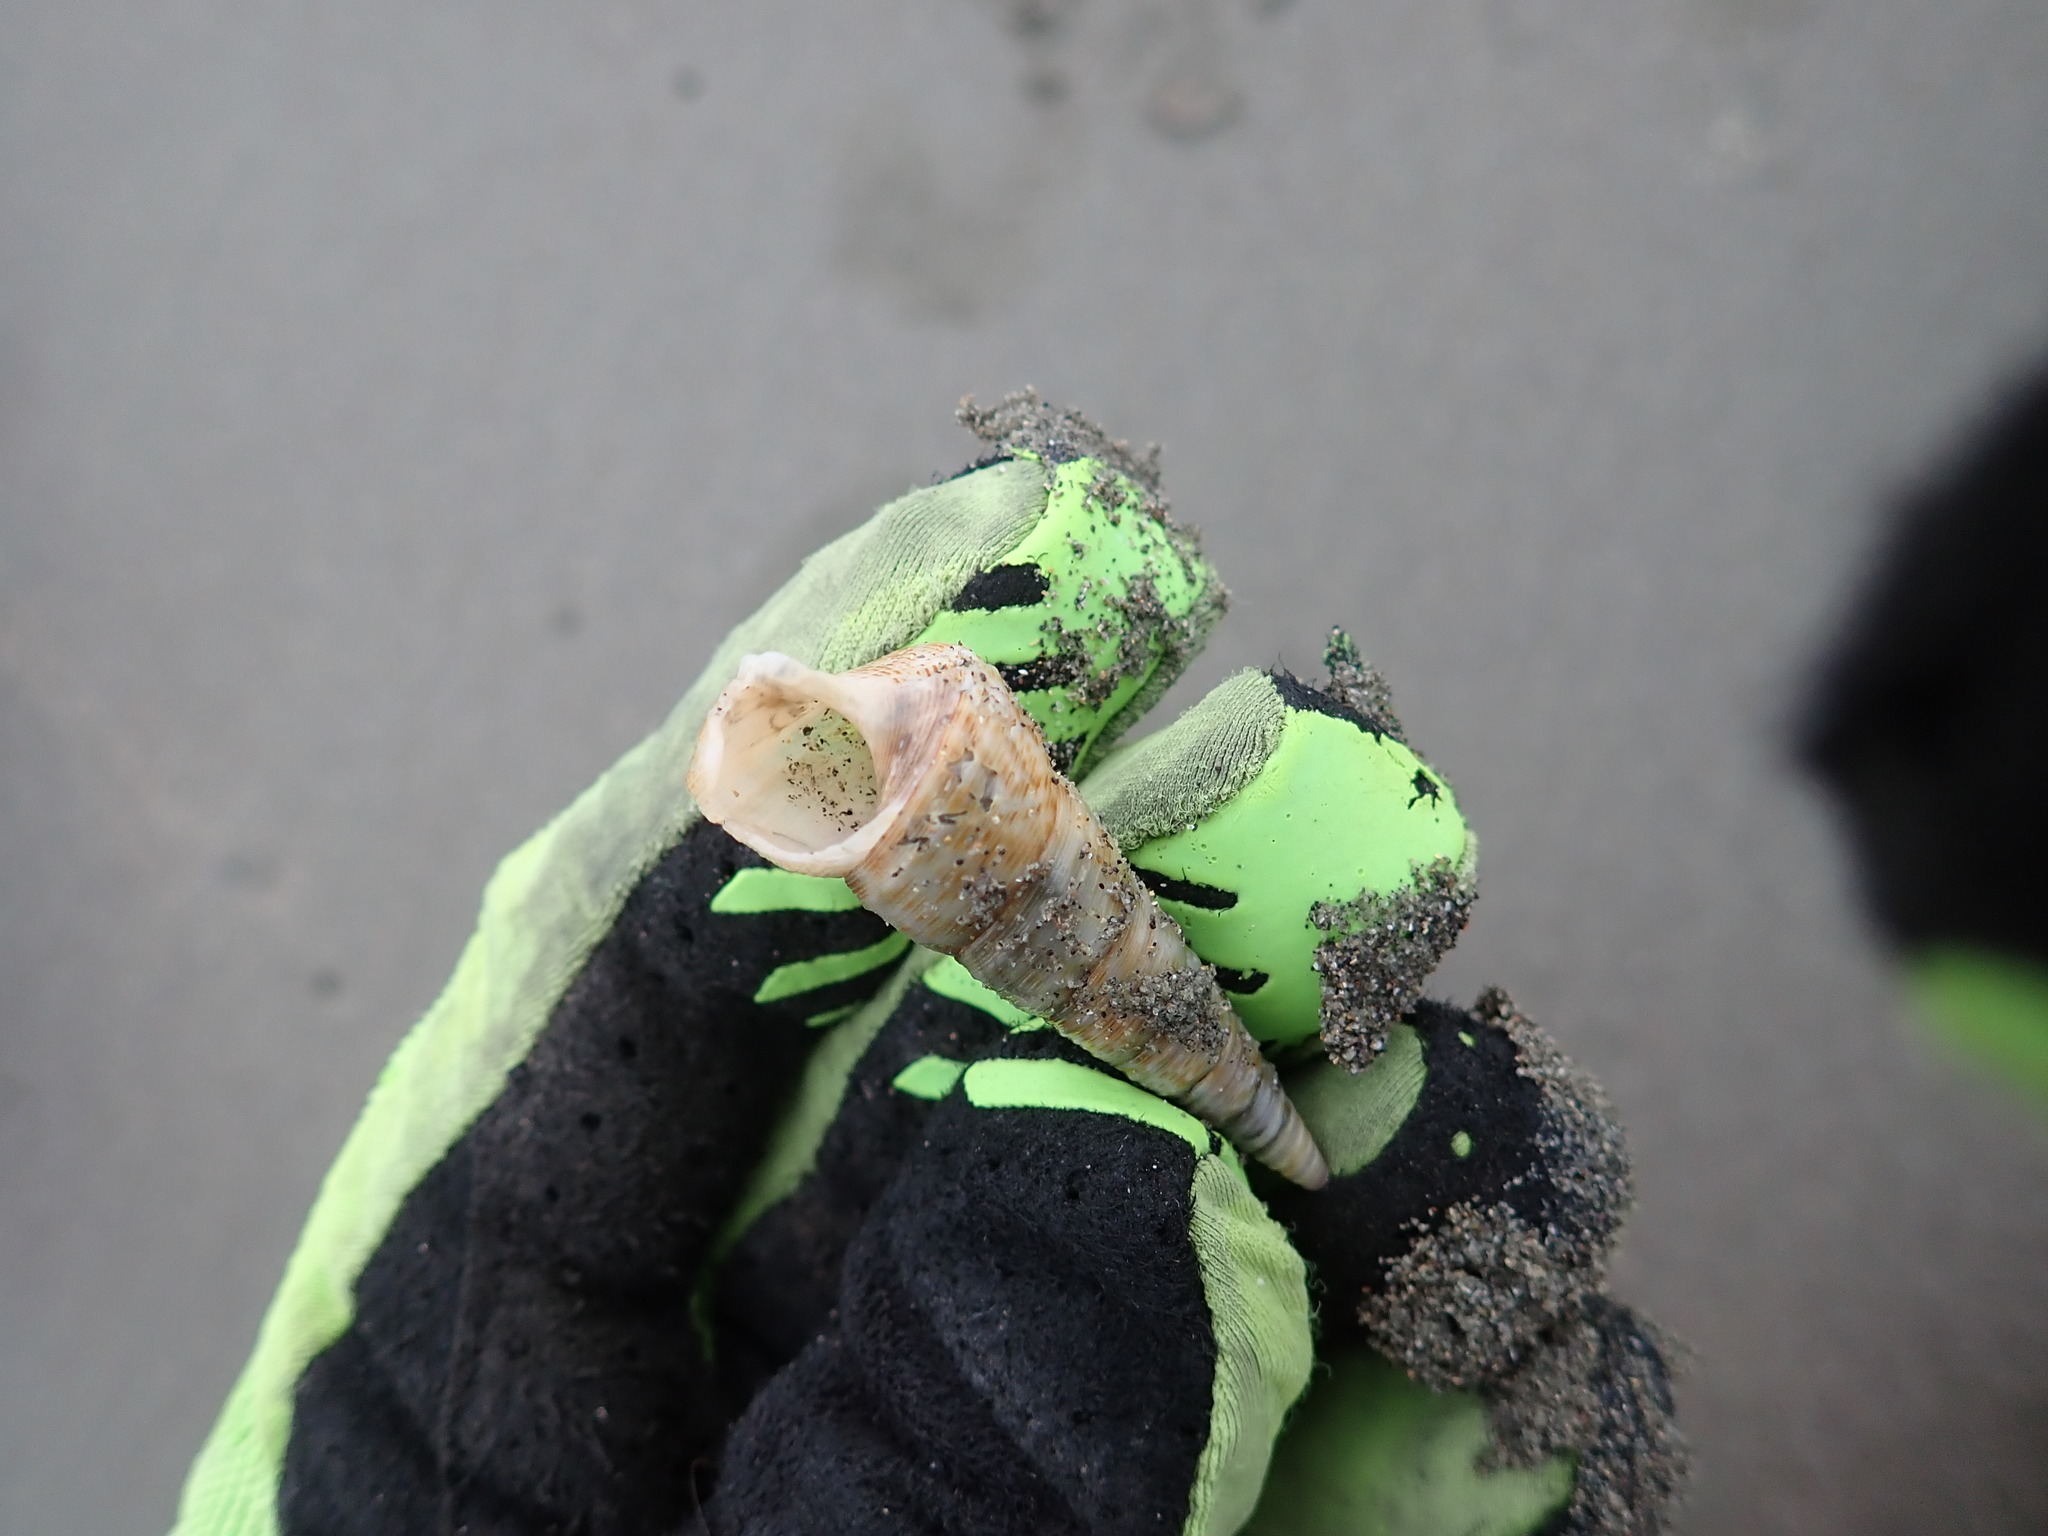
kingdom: Animalia
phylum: Mollusca
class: Gastropoda
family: Turritellidae
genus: Maoricolpus
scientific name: Maoricolpus roseus
